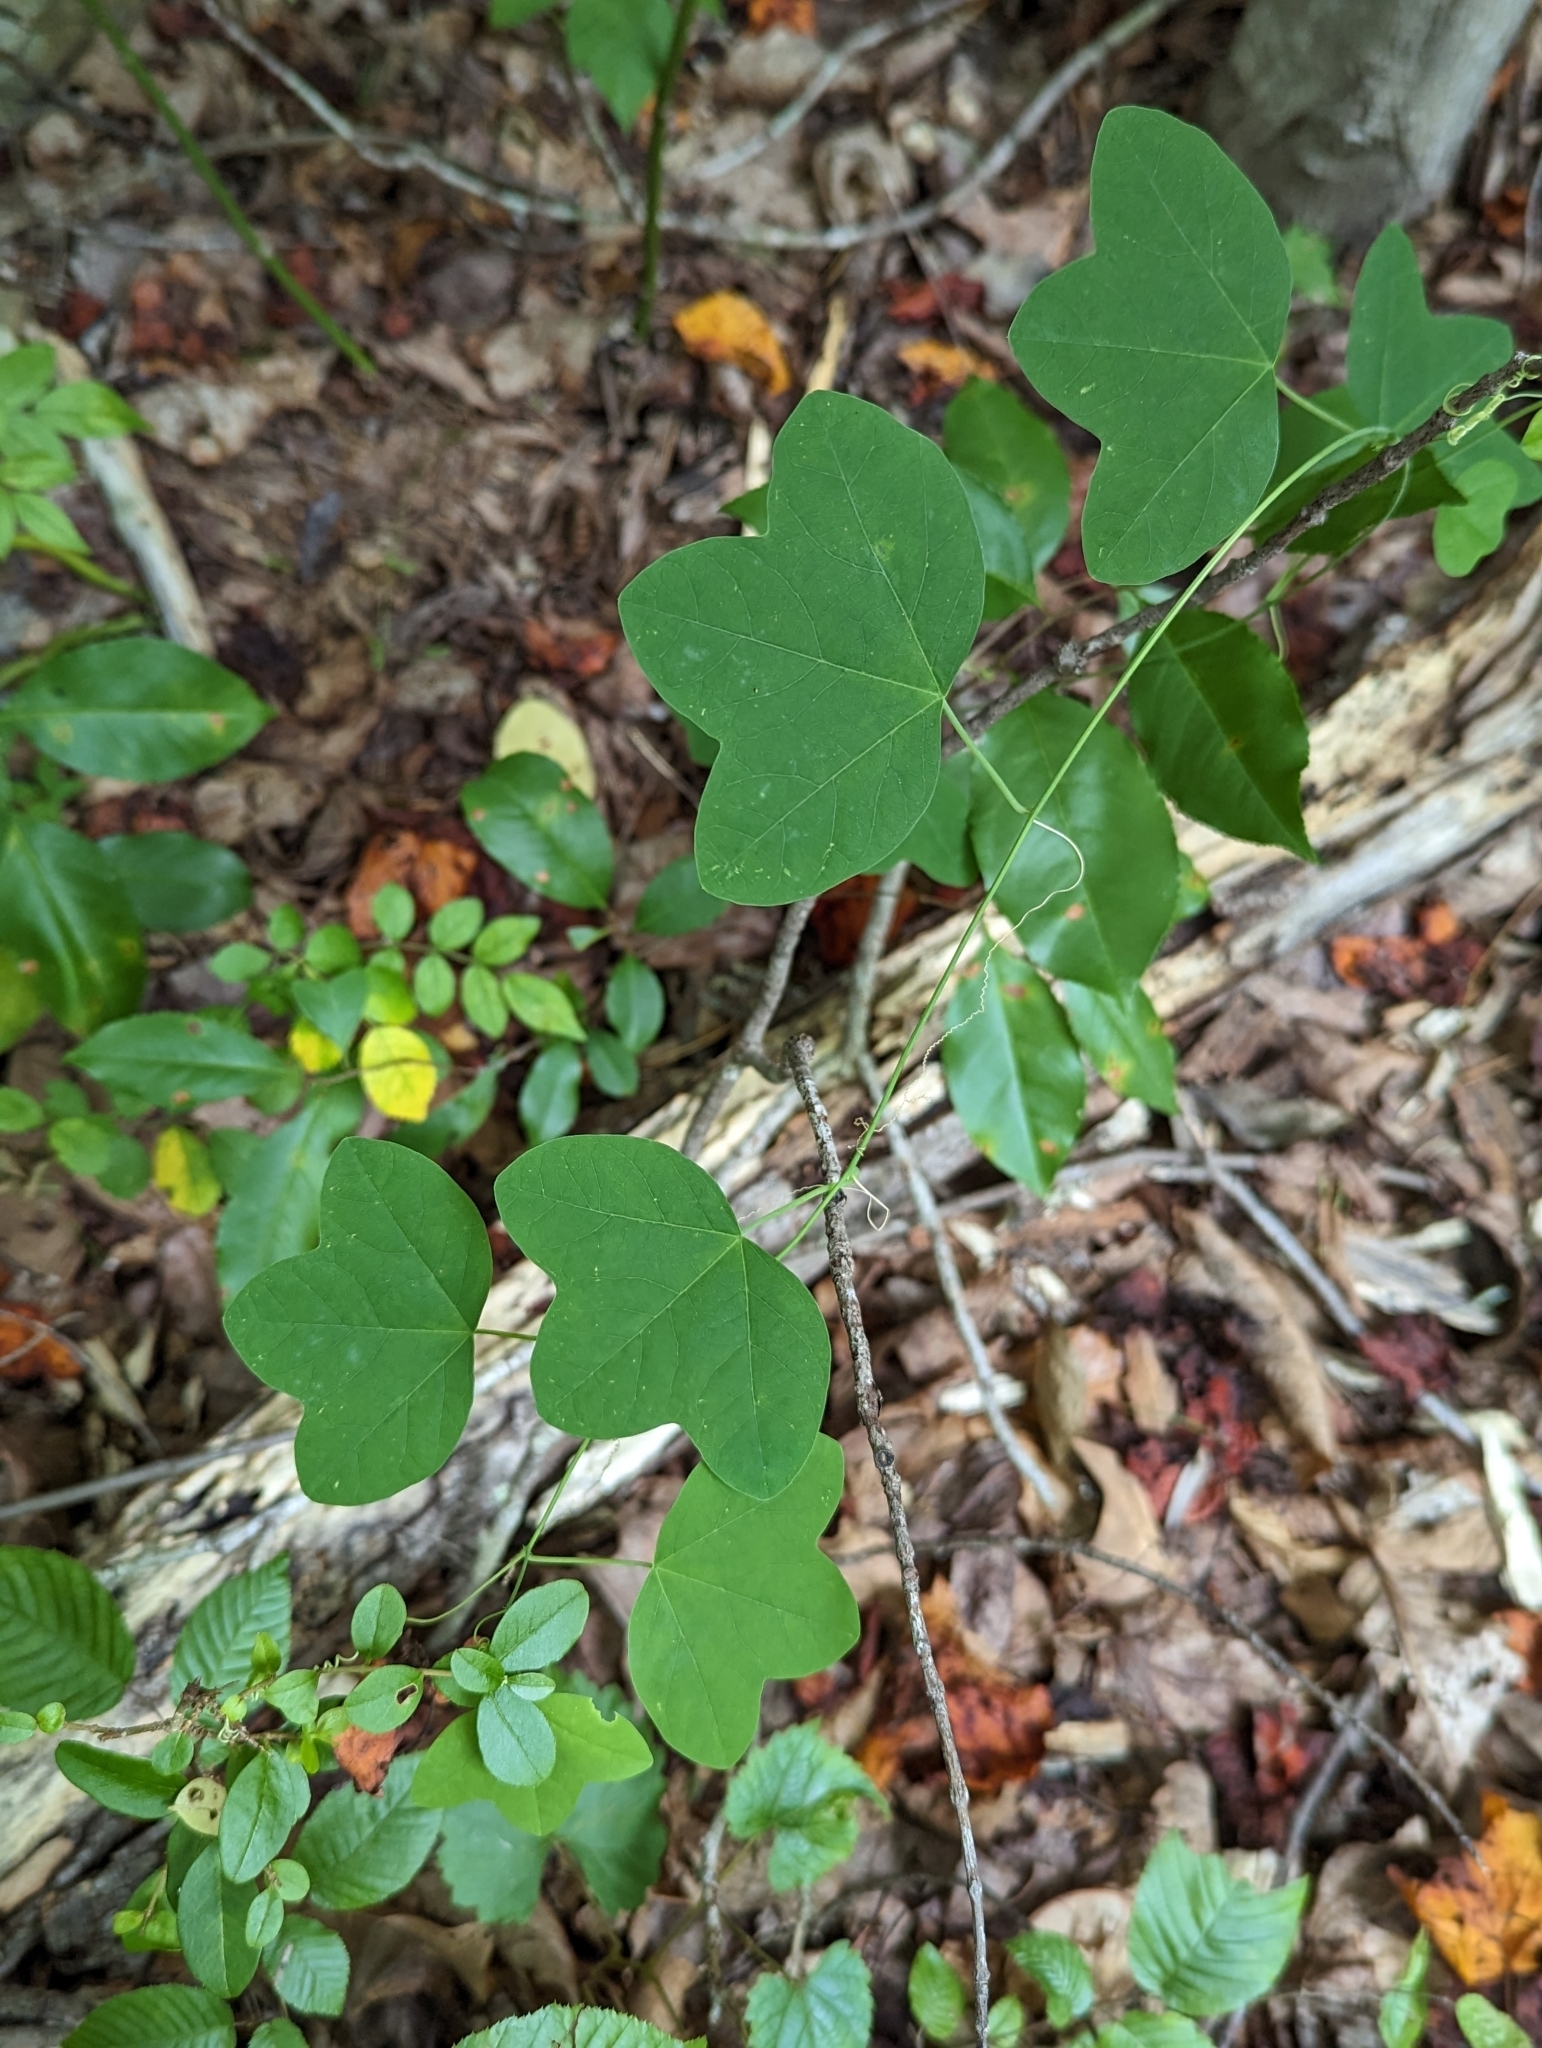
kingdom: Plantae
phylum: Tracheophyta
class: Magnoliopsida
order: Malpighiales
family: Passifloraceae
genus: Passiflora
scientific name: Passiflora lutea
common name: Yellow passionflower
